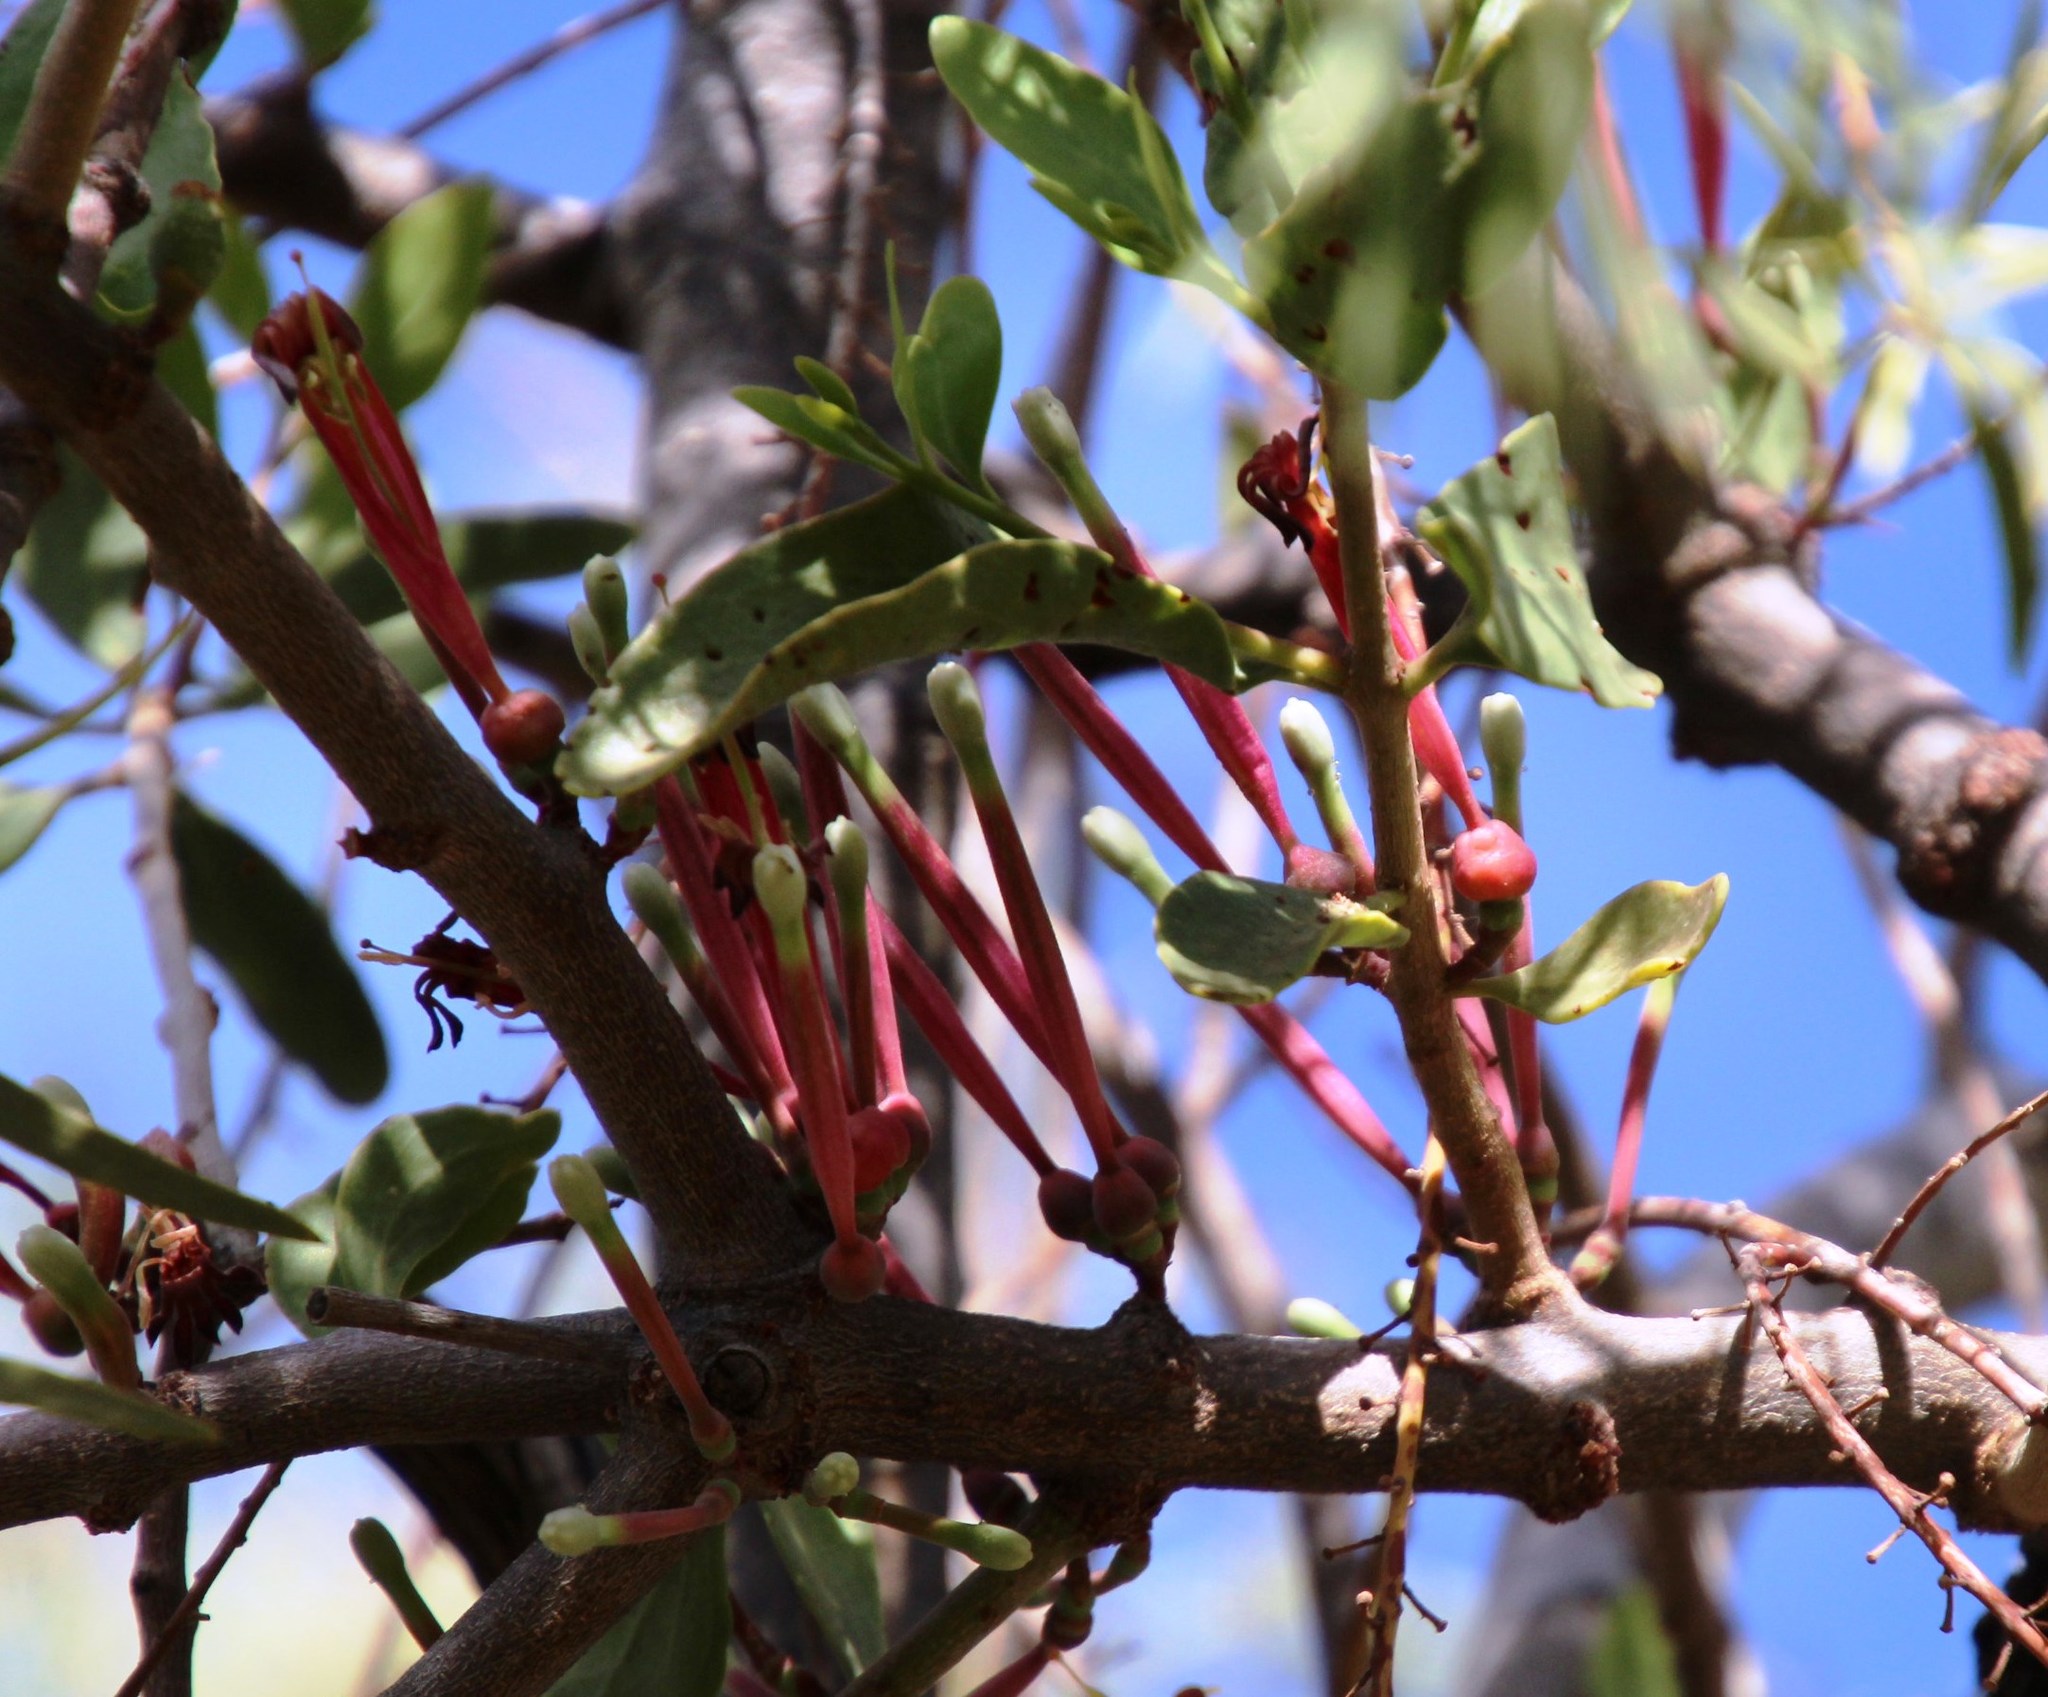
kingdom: Plantae
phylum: Tracheophyta
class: Magnoliopsida
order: Santalales
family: Loranthaceae
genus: Tapinanthus
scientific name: Tapinanthus oleifolius
